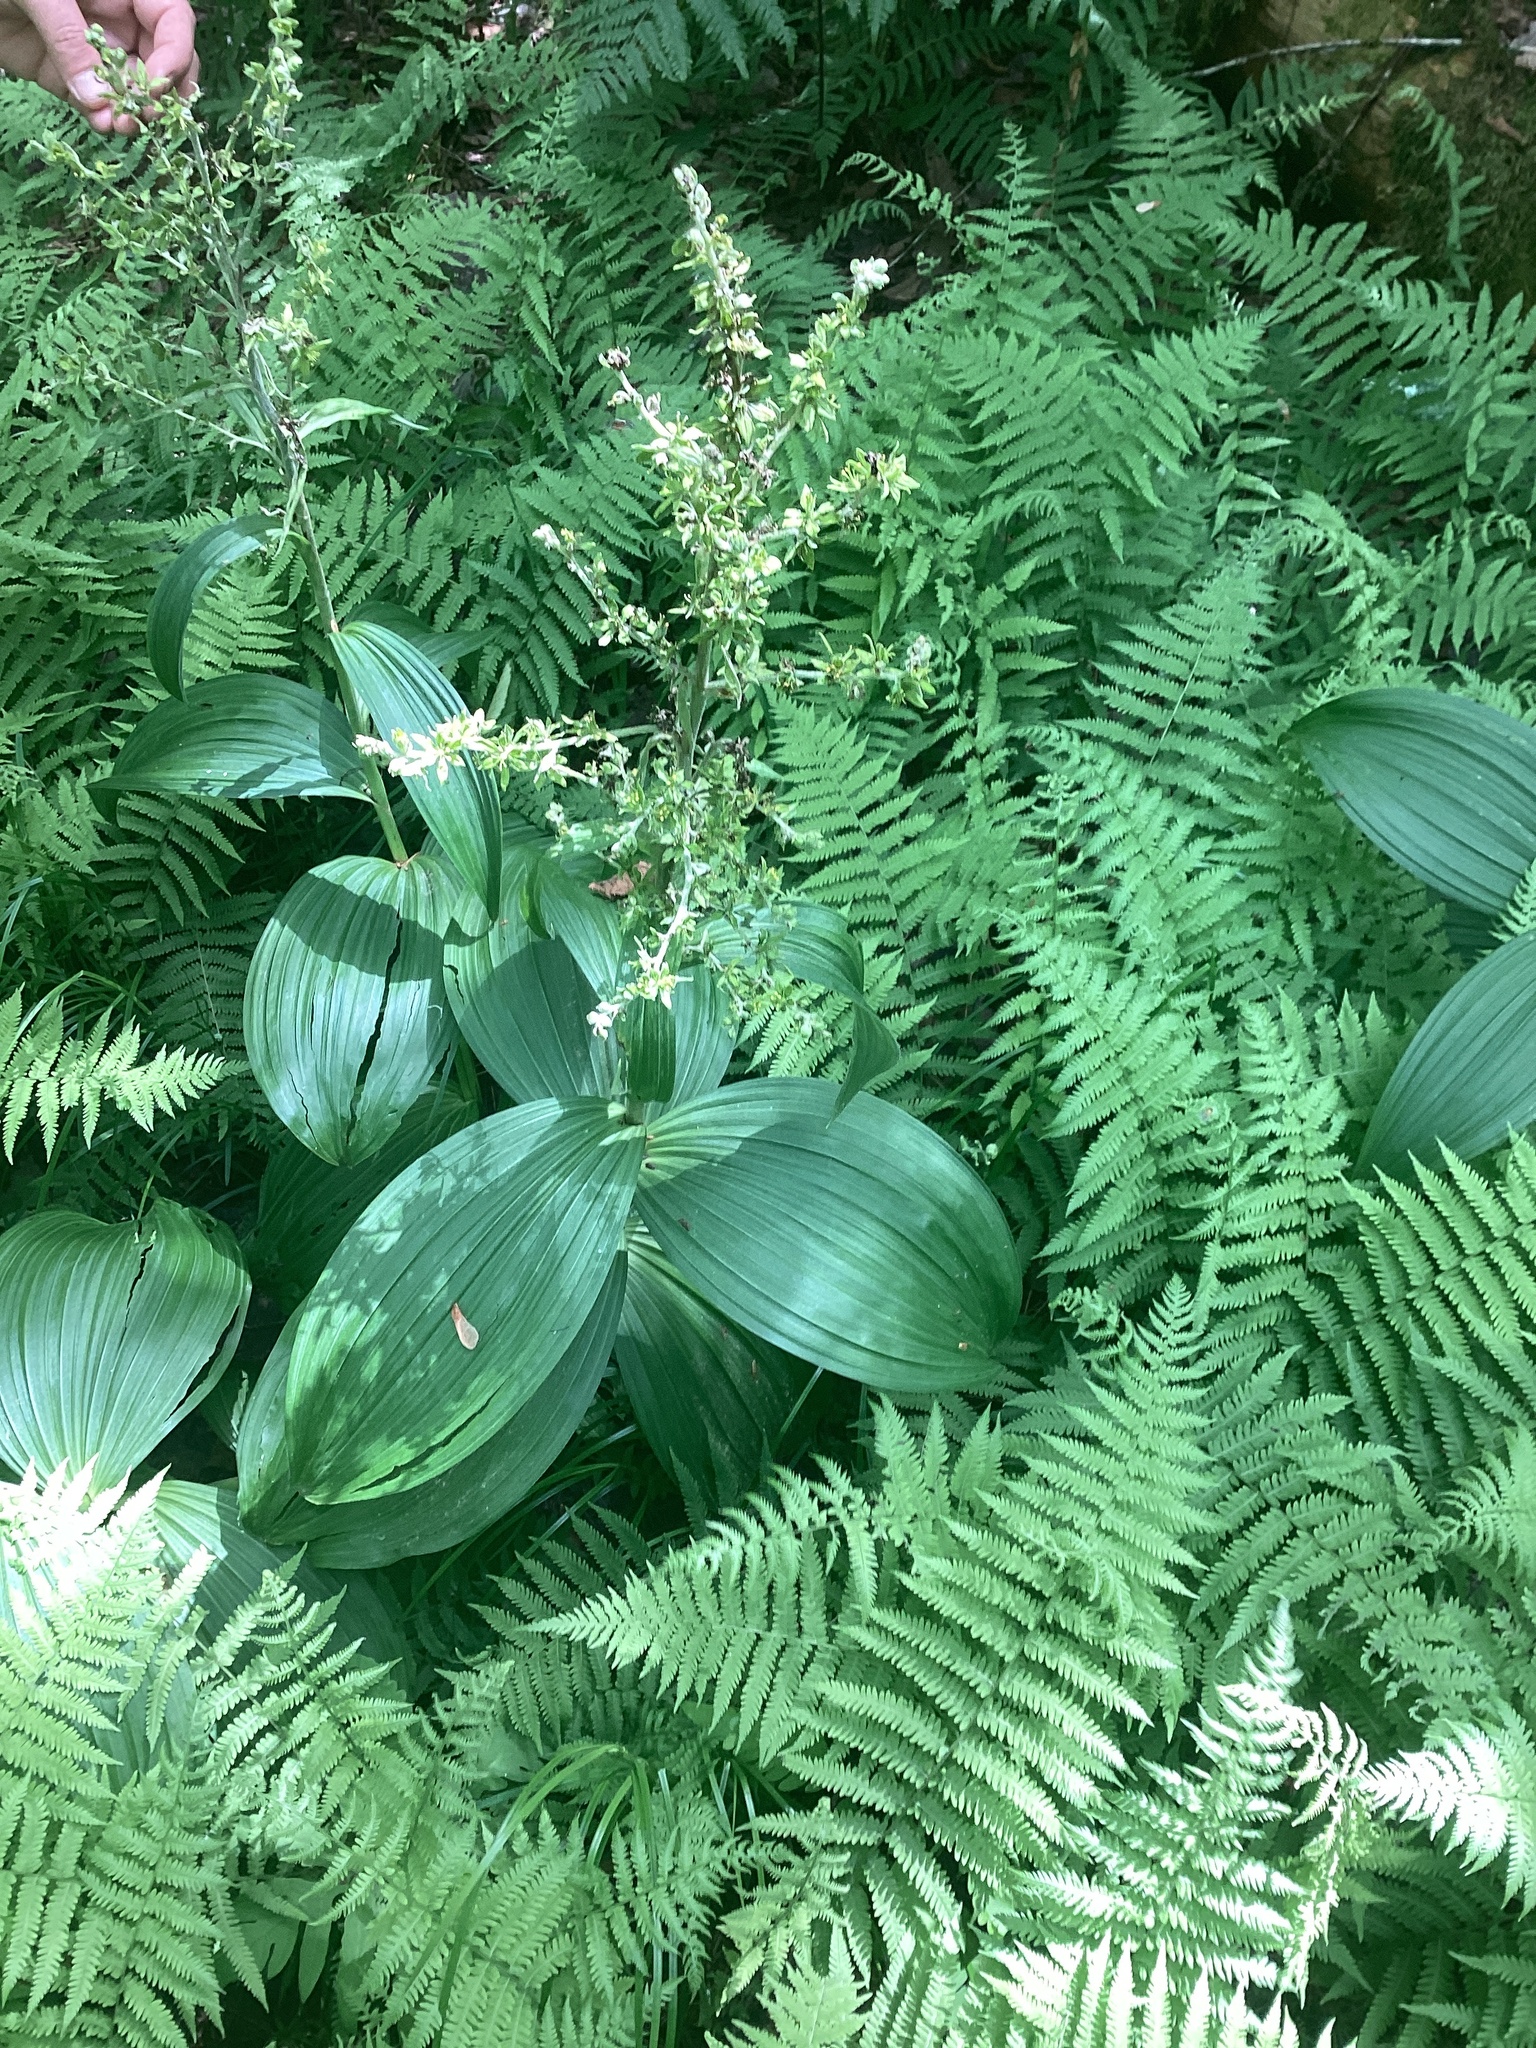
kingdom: Plantae
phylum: Tracheophyta
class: Liliopsida
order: Liliales
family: Melanthiaceae
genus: Veratrum
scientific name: Veratrum viride
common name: American false hellebore
